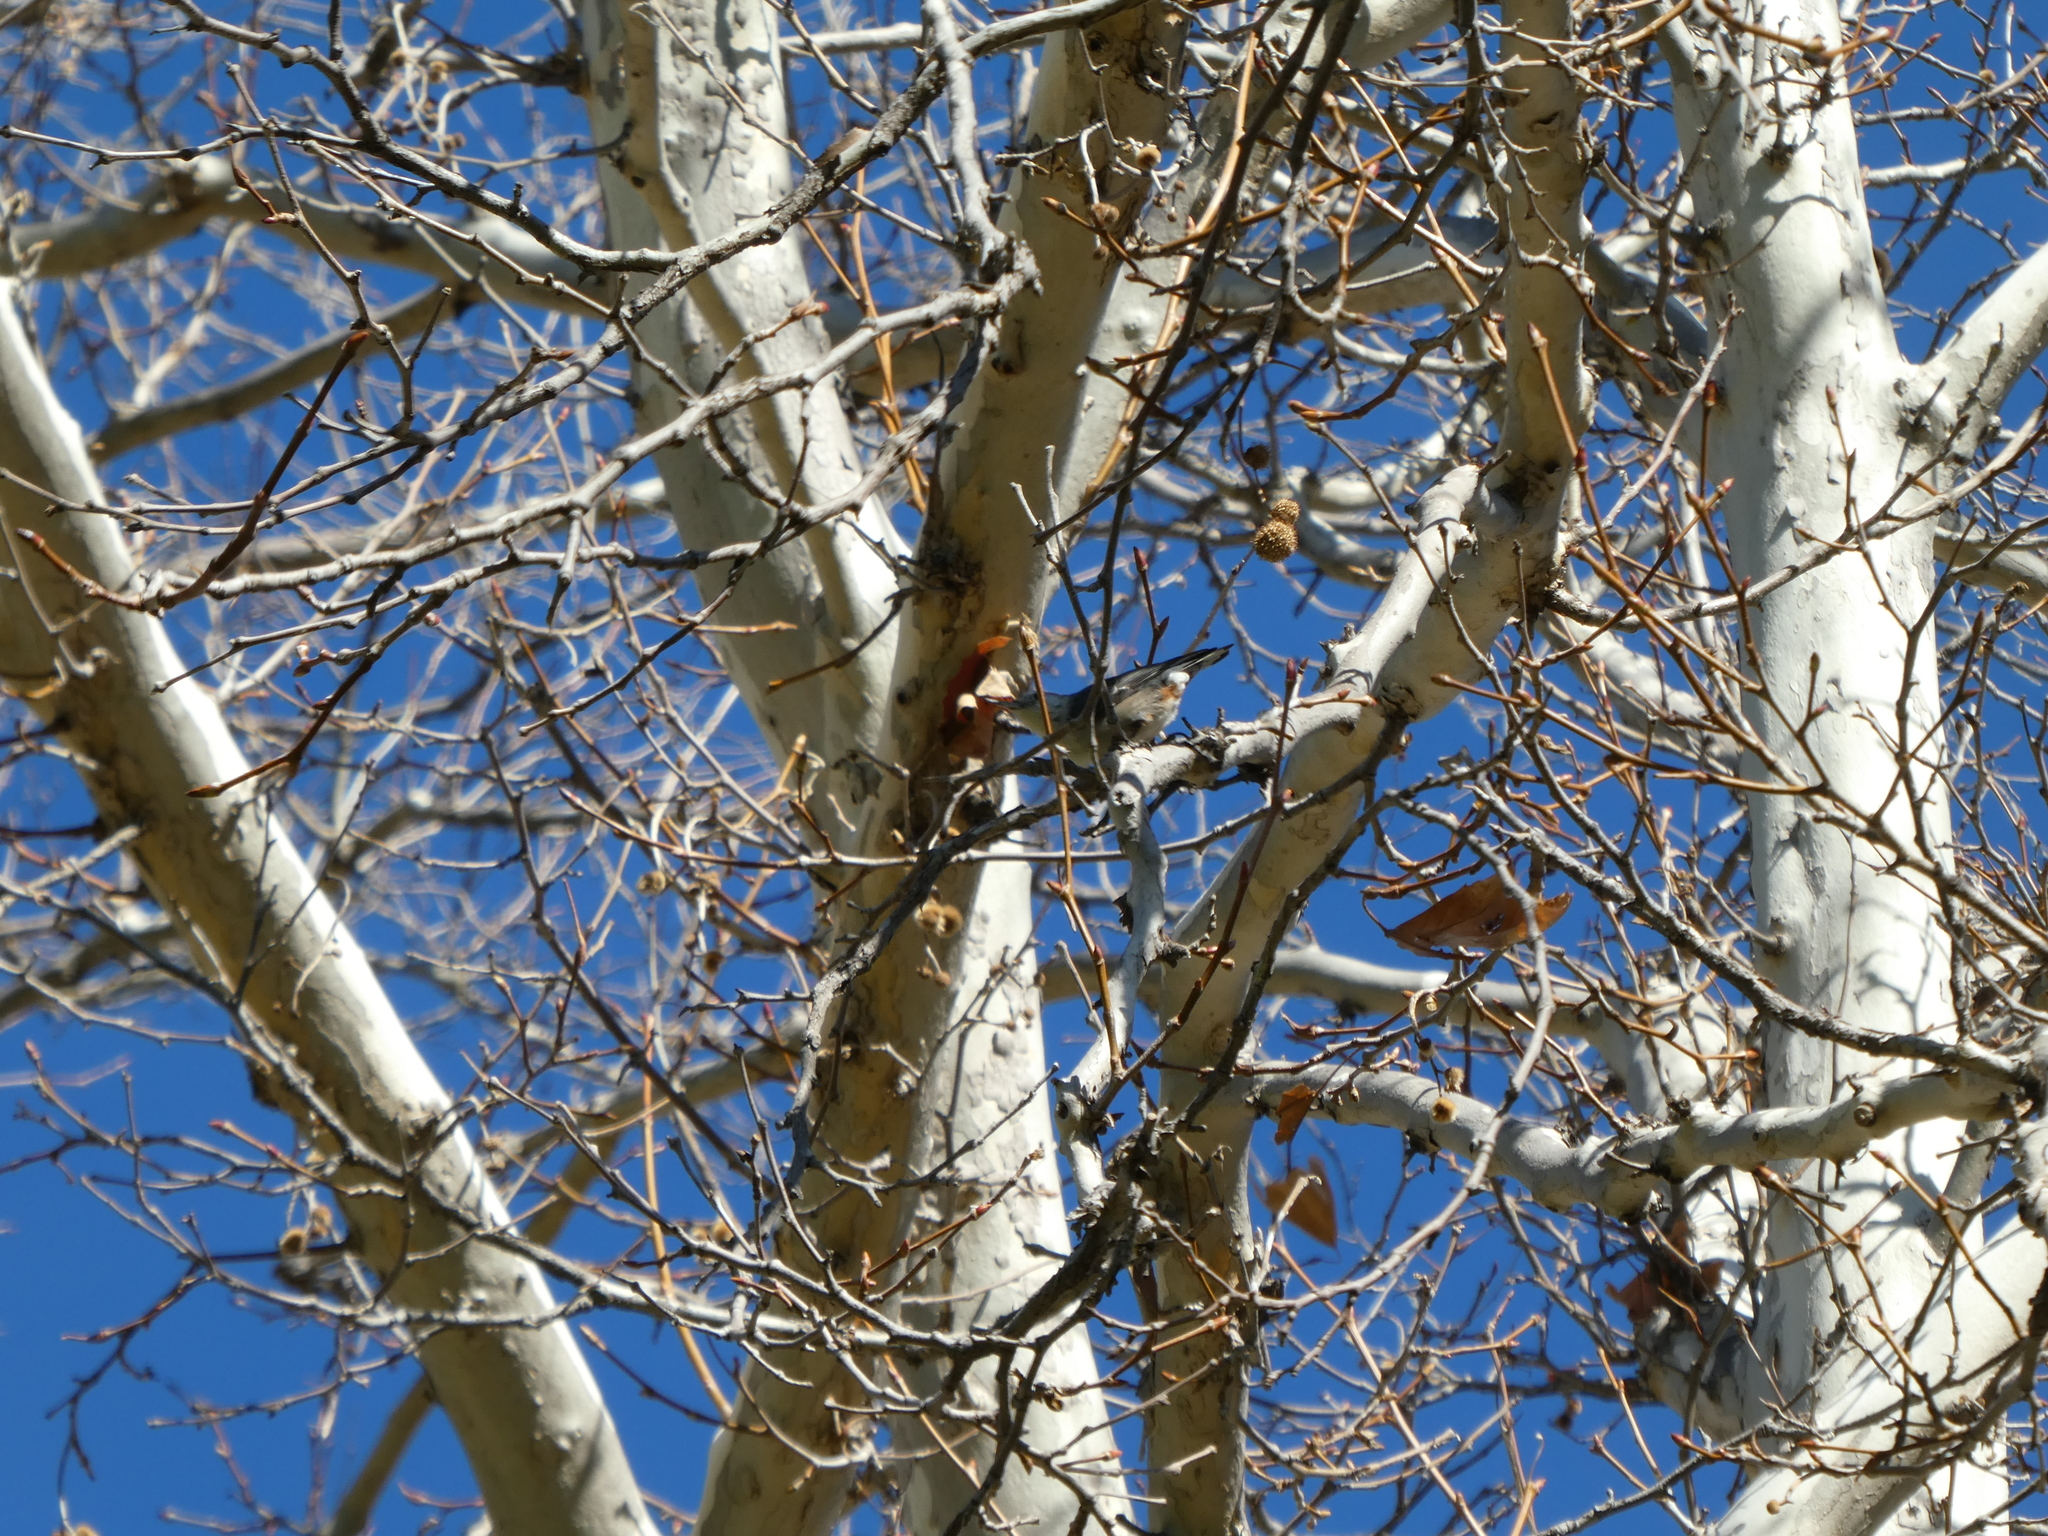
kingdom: Animalia
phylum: Chordata
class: Aves
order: Passeriformes
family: Sittidae
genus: Sitta
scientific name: Sitta carolinensis
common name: White-breasted nuthatch
